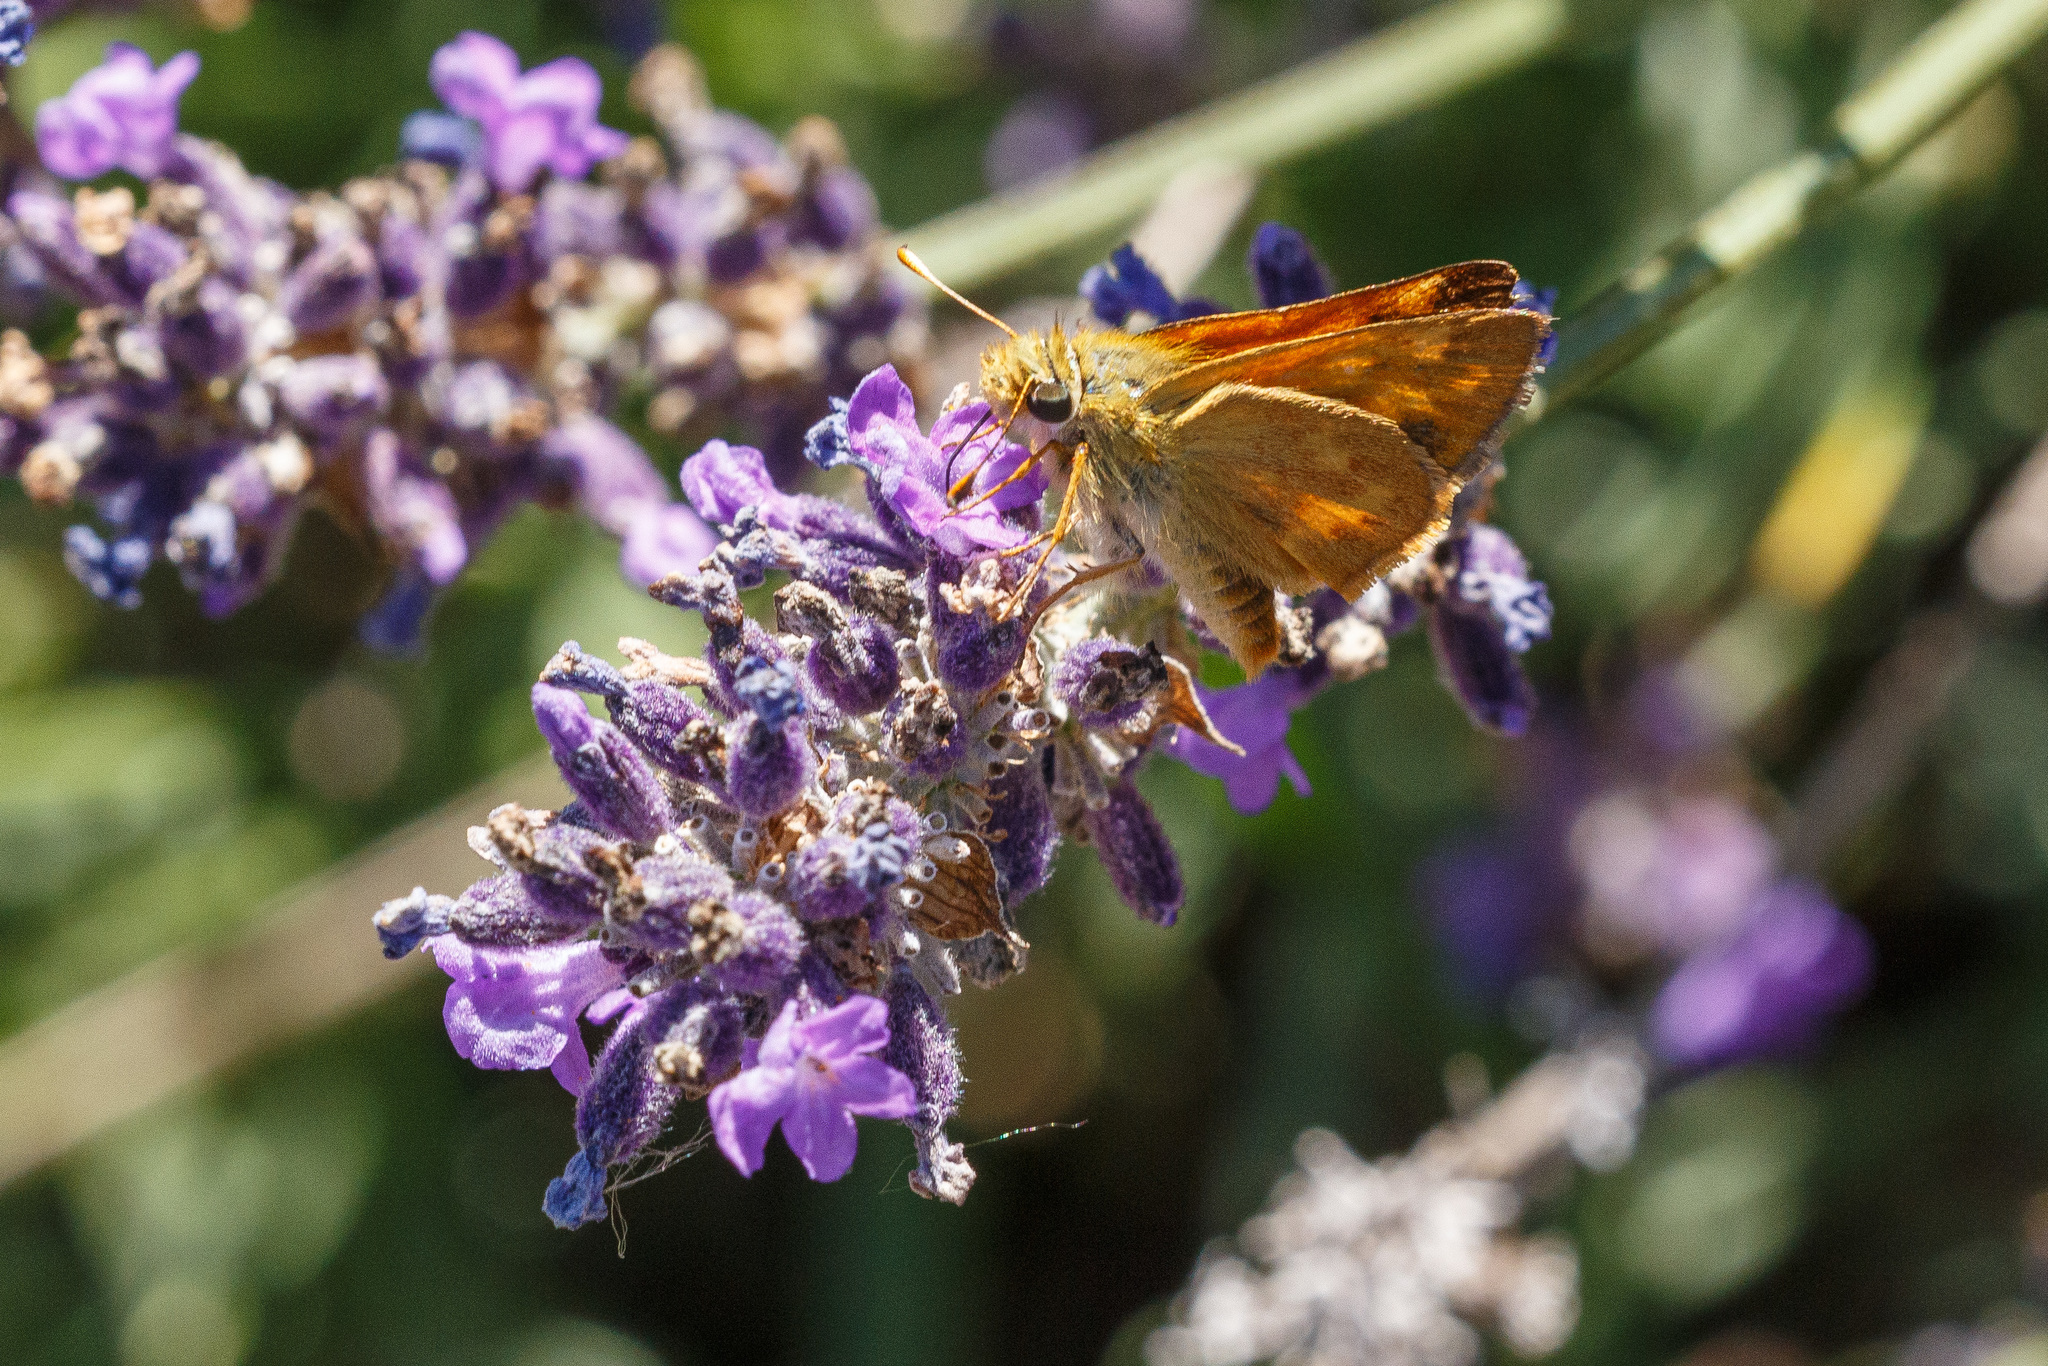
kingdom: Animalia
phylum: Arthropoda
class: Insecta
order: Lepidoptera
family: Hesperiidae
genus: Ochlodes
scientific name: Ochlodes sylvanoides
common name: Woodland skipper
